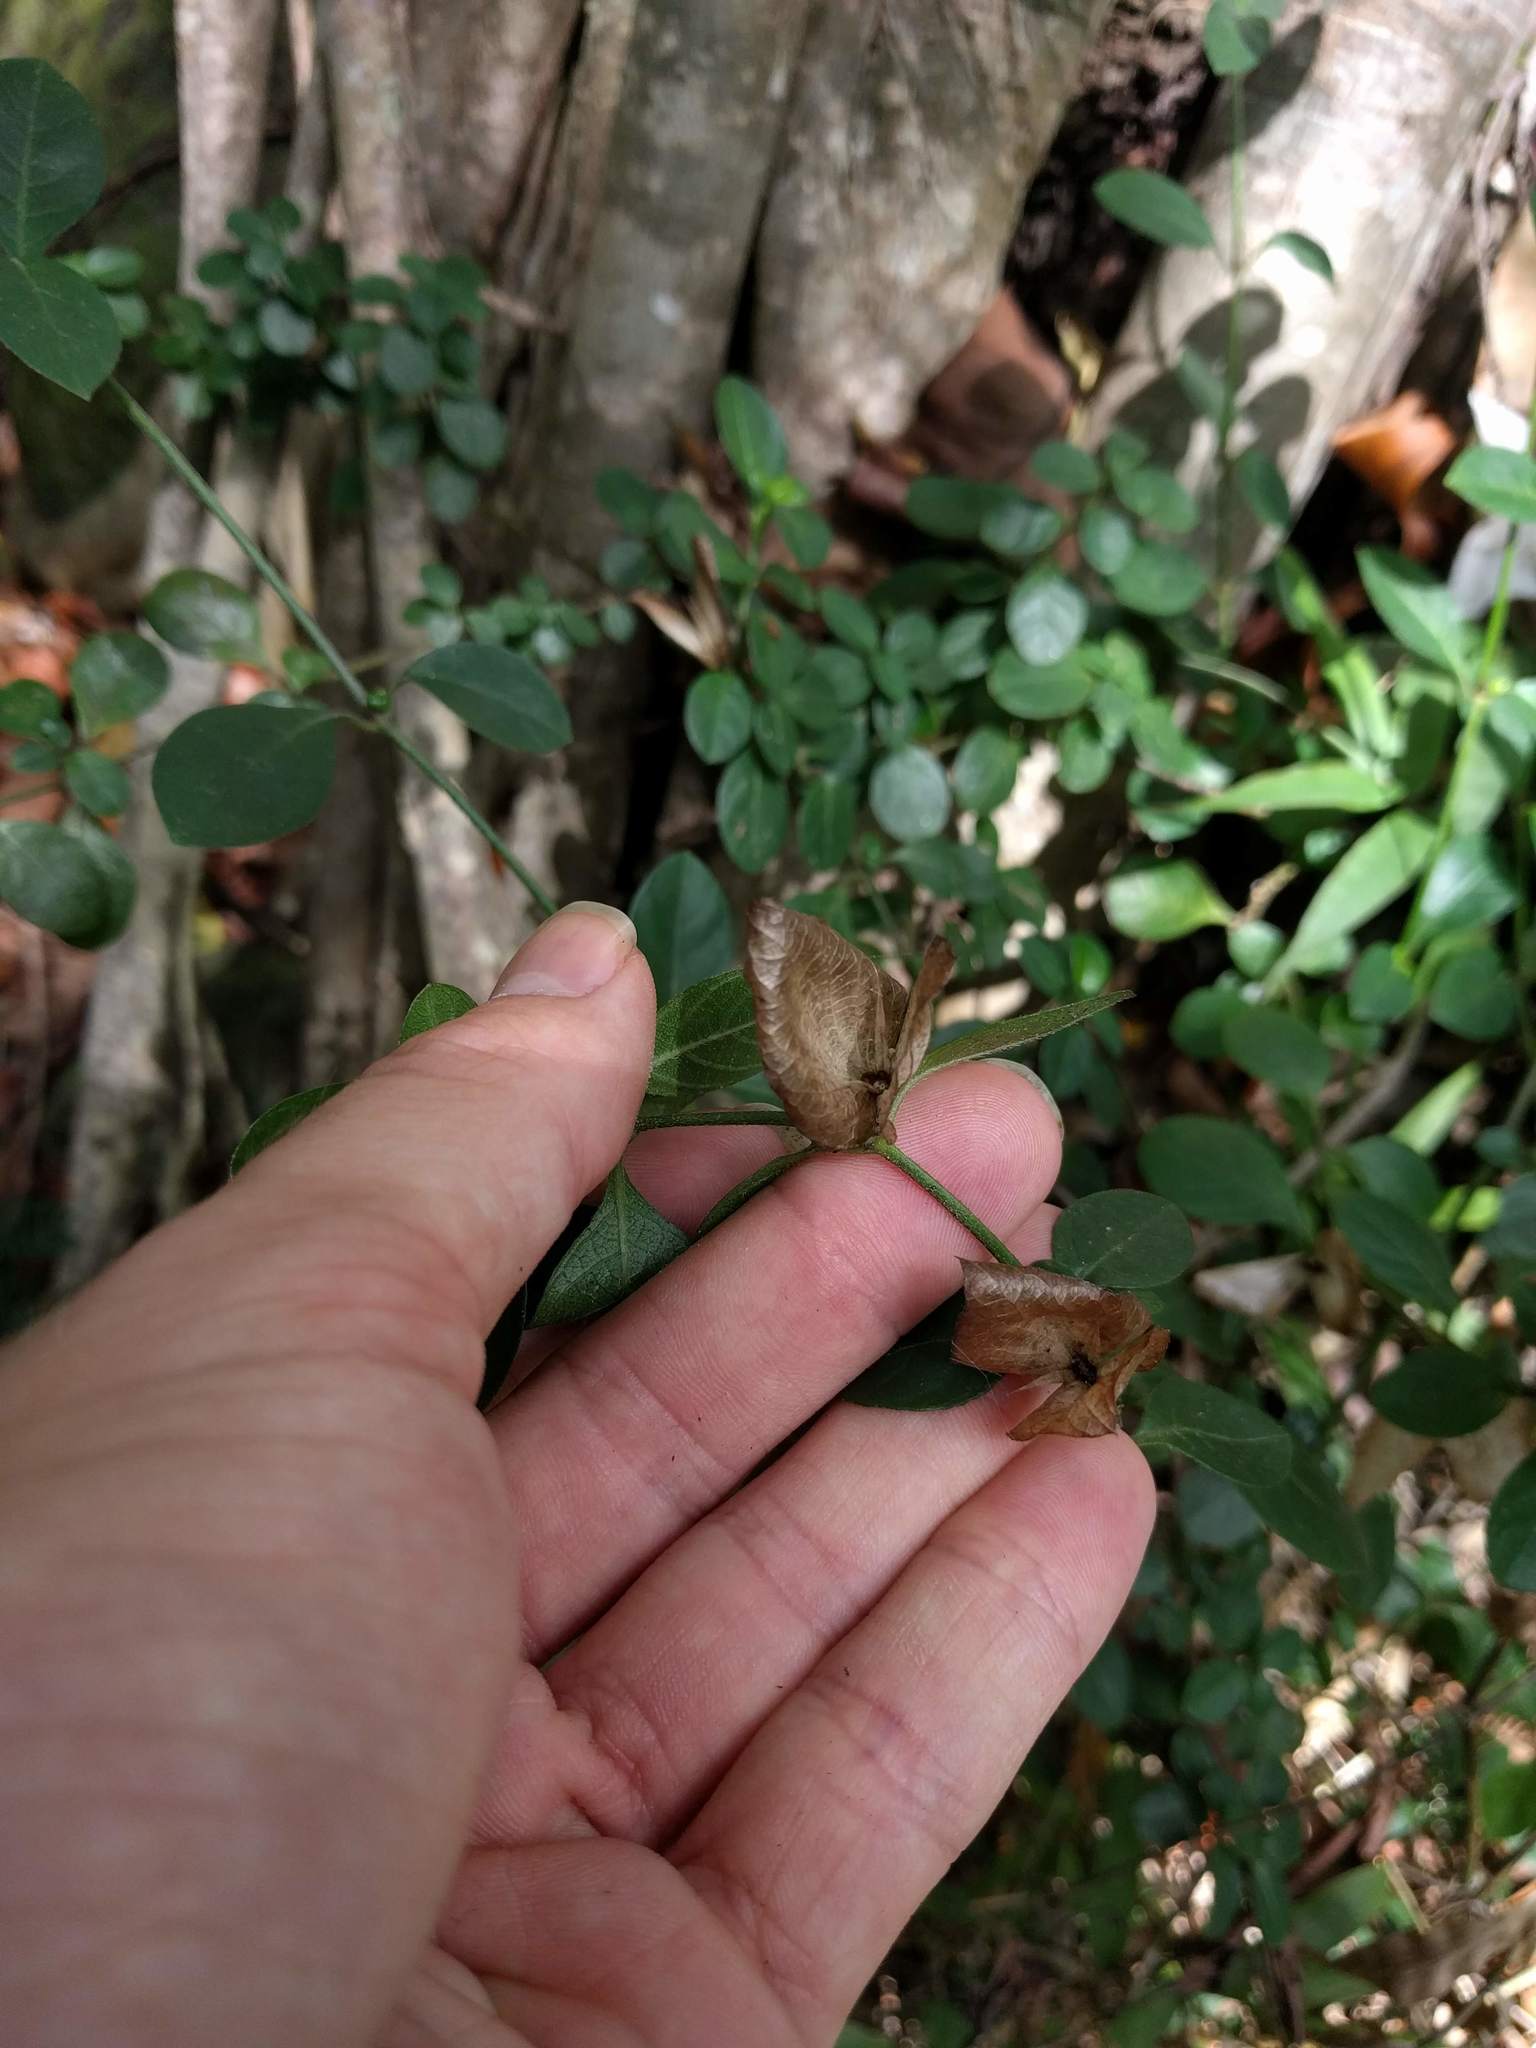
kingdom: Plantae
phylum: Tracheophyta
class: Magnoliopsida
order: Lamiales
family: Acanthaceae
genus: Barleria
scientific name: Barleria repens
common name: Pink-ruellia
